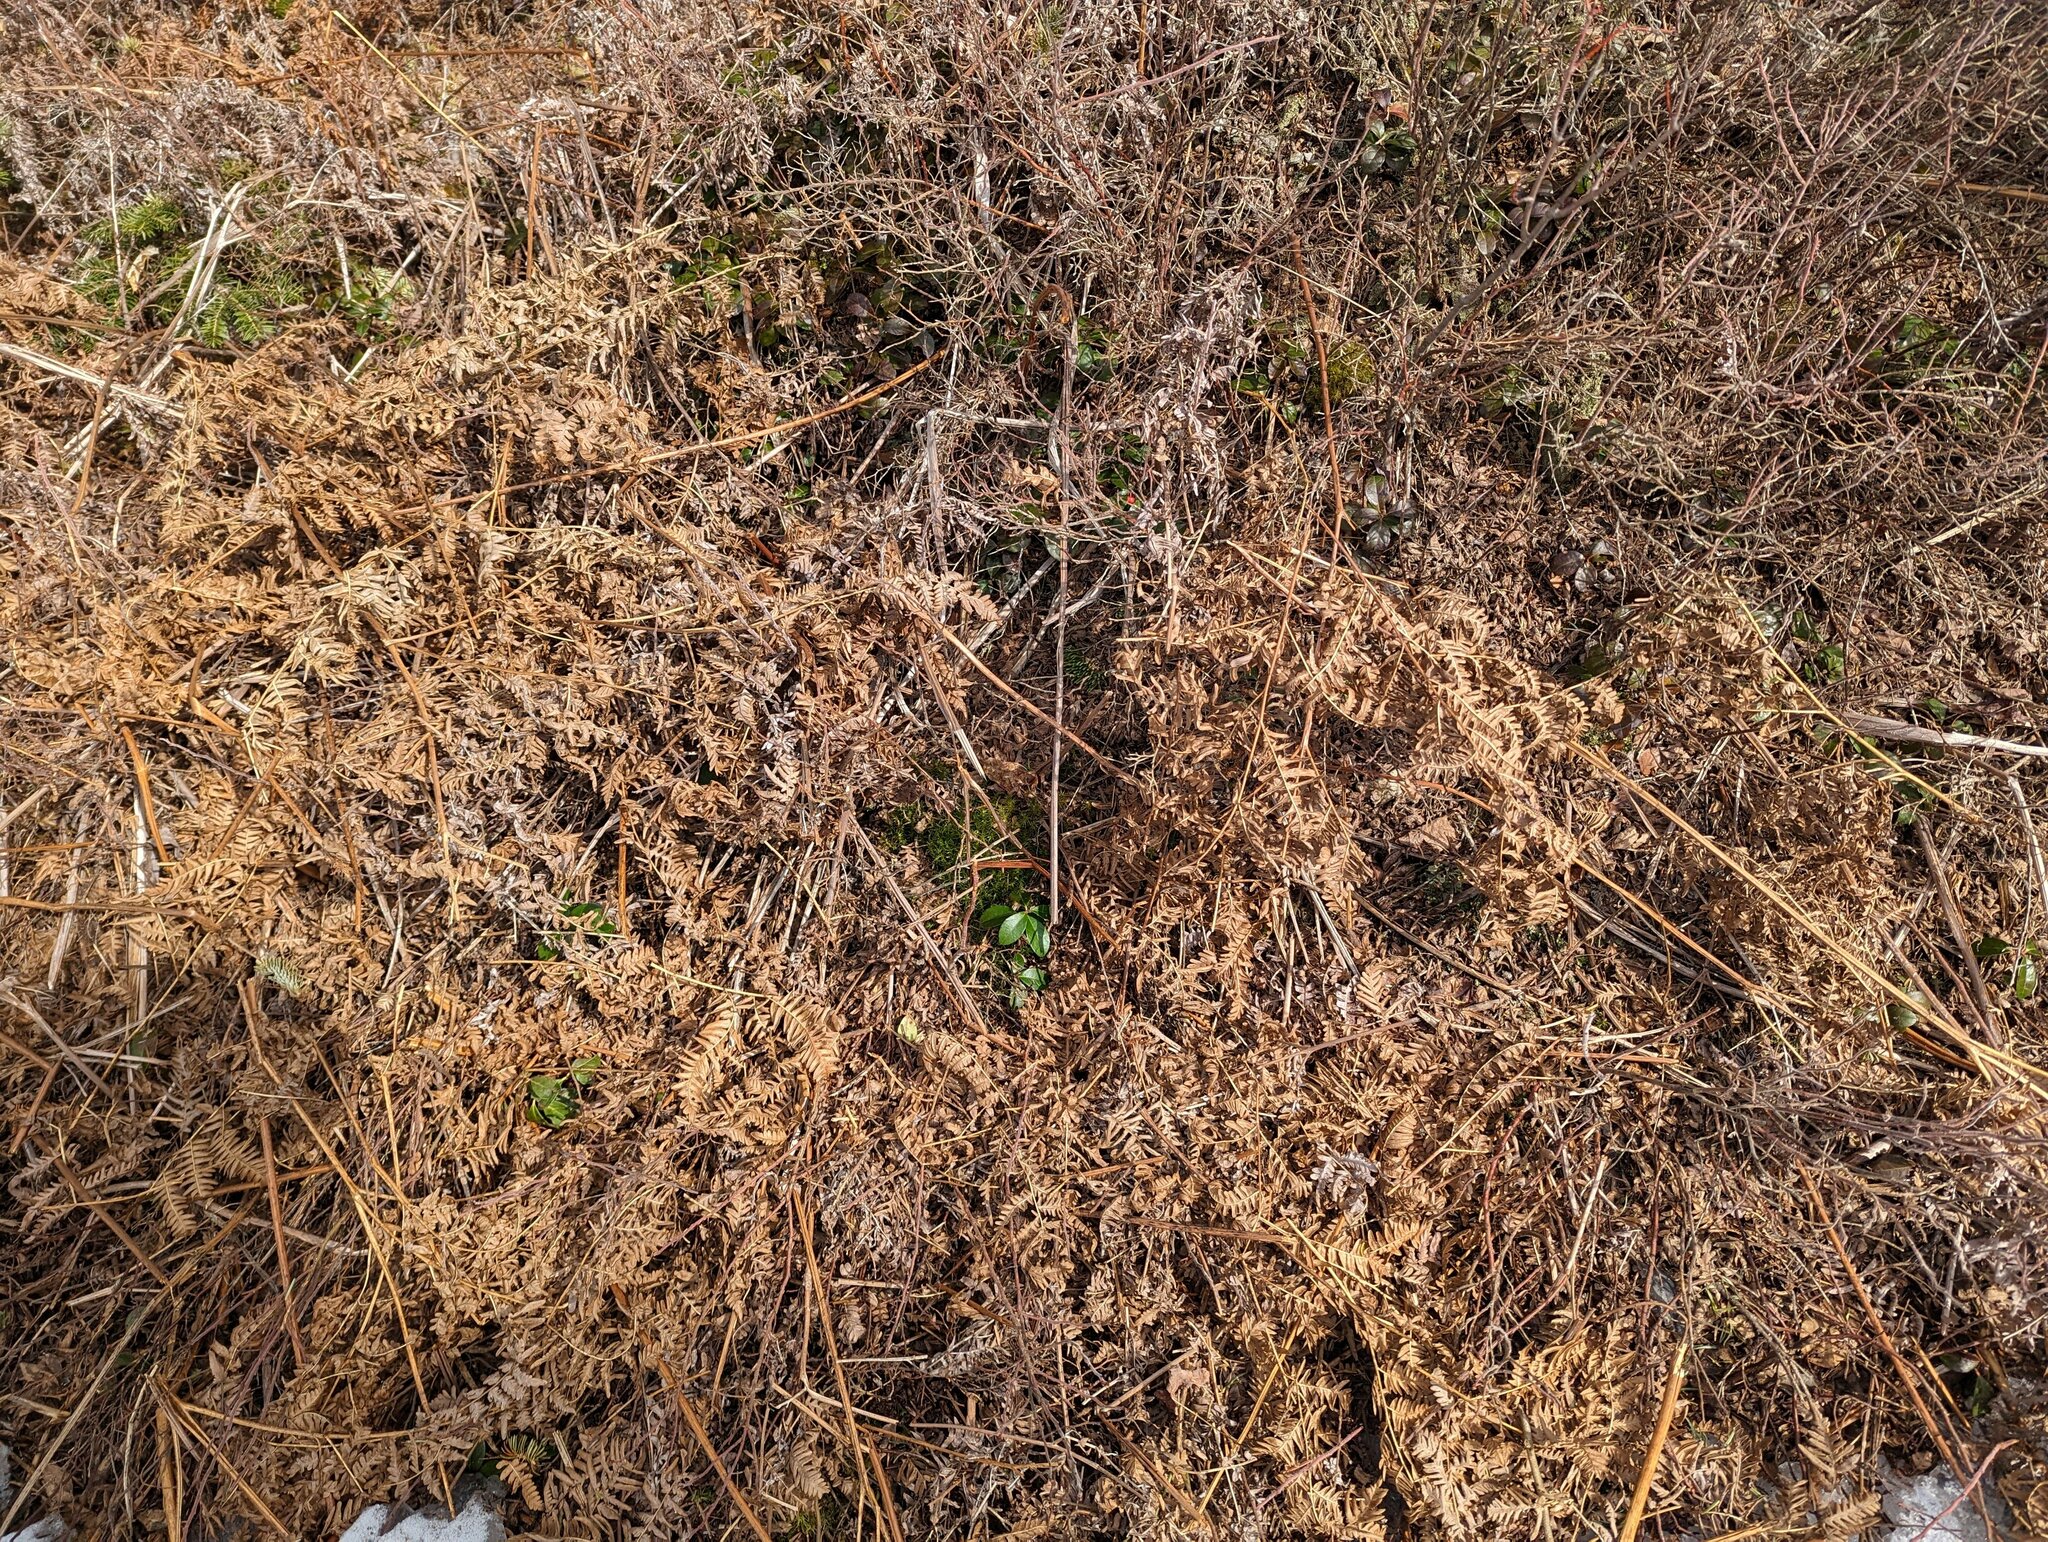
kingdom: Plantae
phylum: Tracheophyta
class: Polypodiopsida
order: Polypodiales
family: Dennstaedtiaceae
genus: Pteridium
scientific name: Pteridium aquilinum
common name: Bracken
